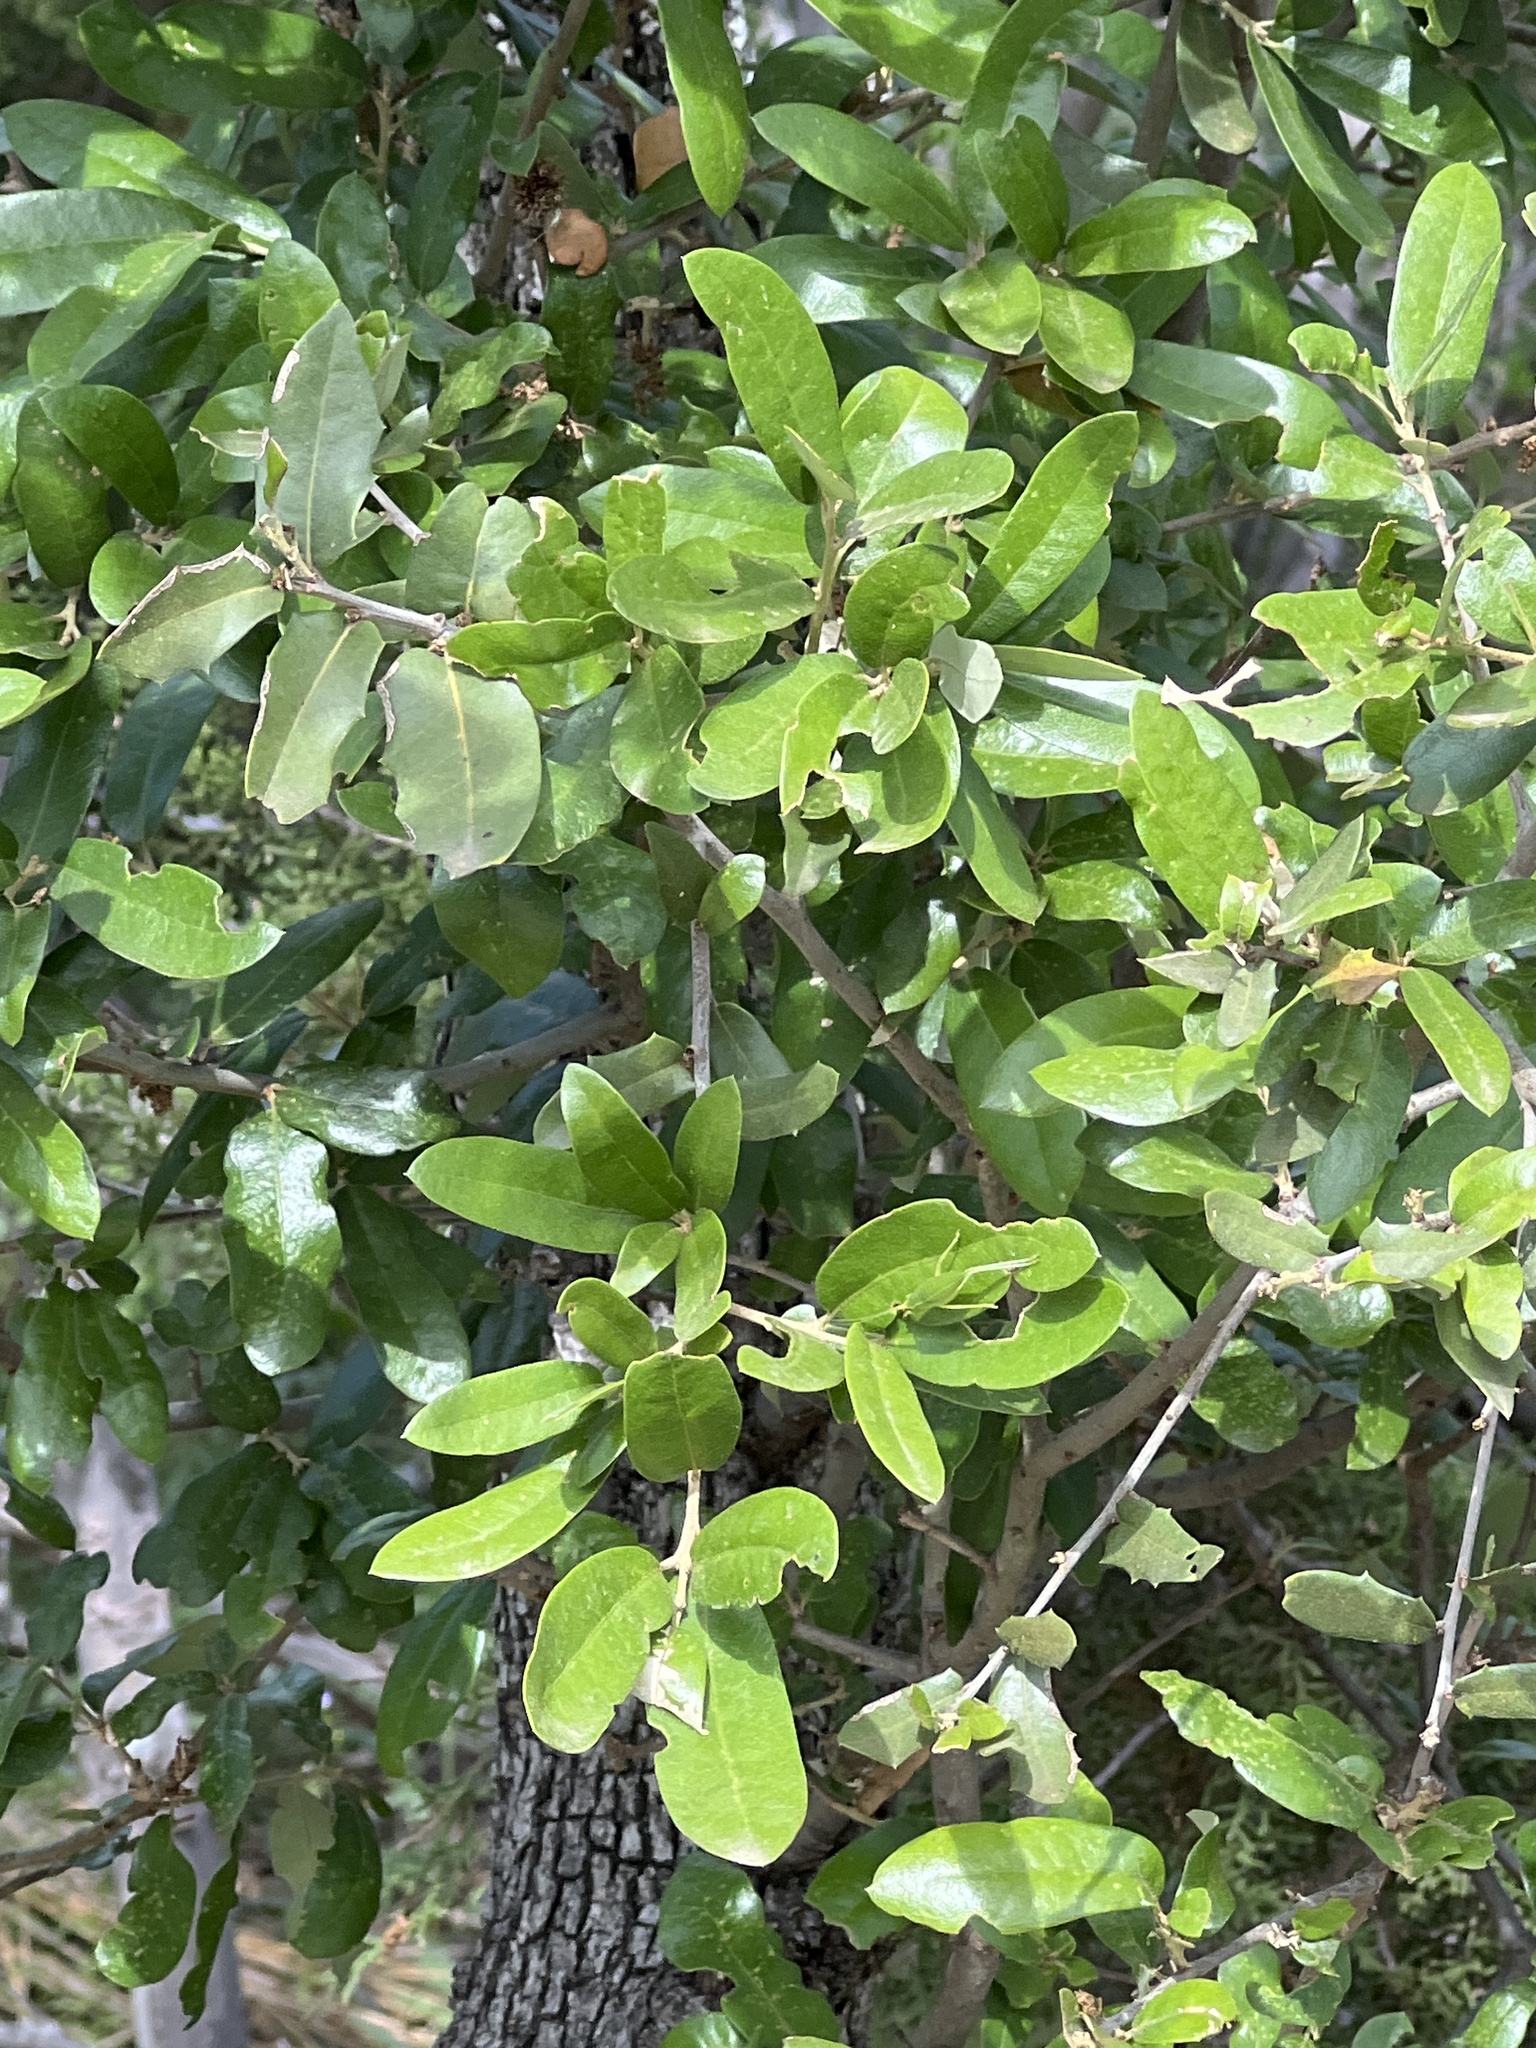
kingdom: Plantae
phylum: Tracheophyta
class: Magnoliopsida
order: Fagales
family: Fagaceae
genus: Quercus
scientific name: Quercus fusiformis
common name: Texas live oak
